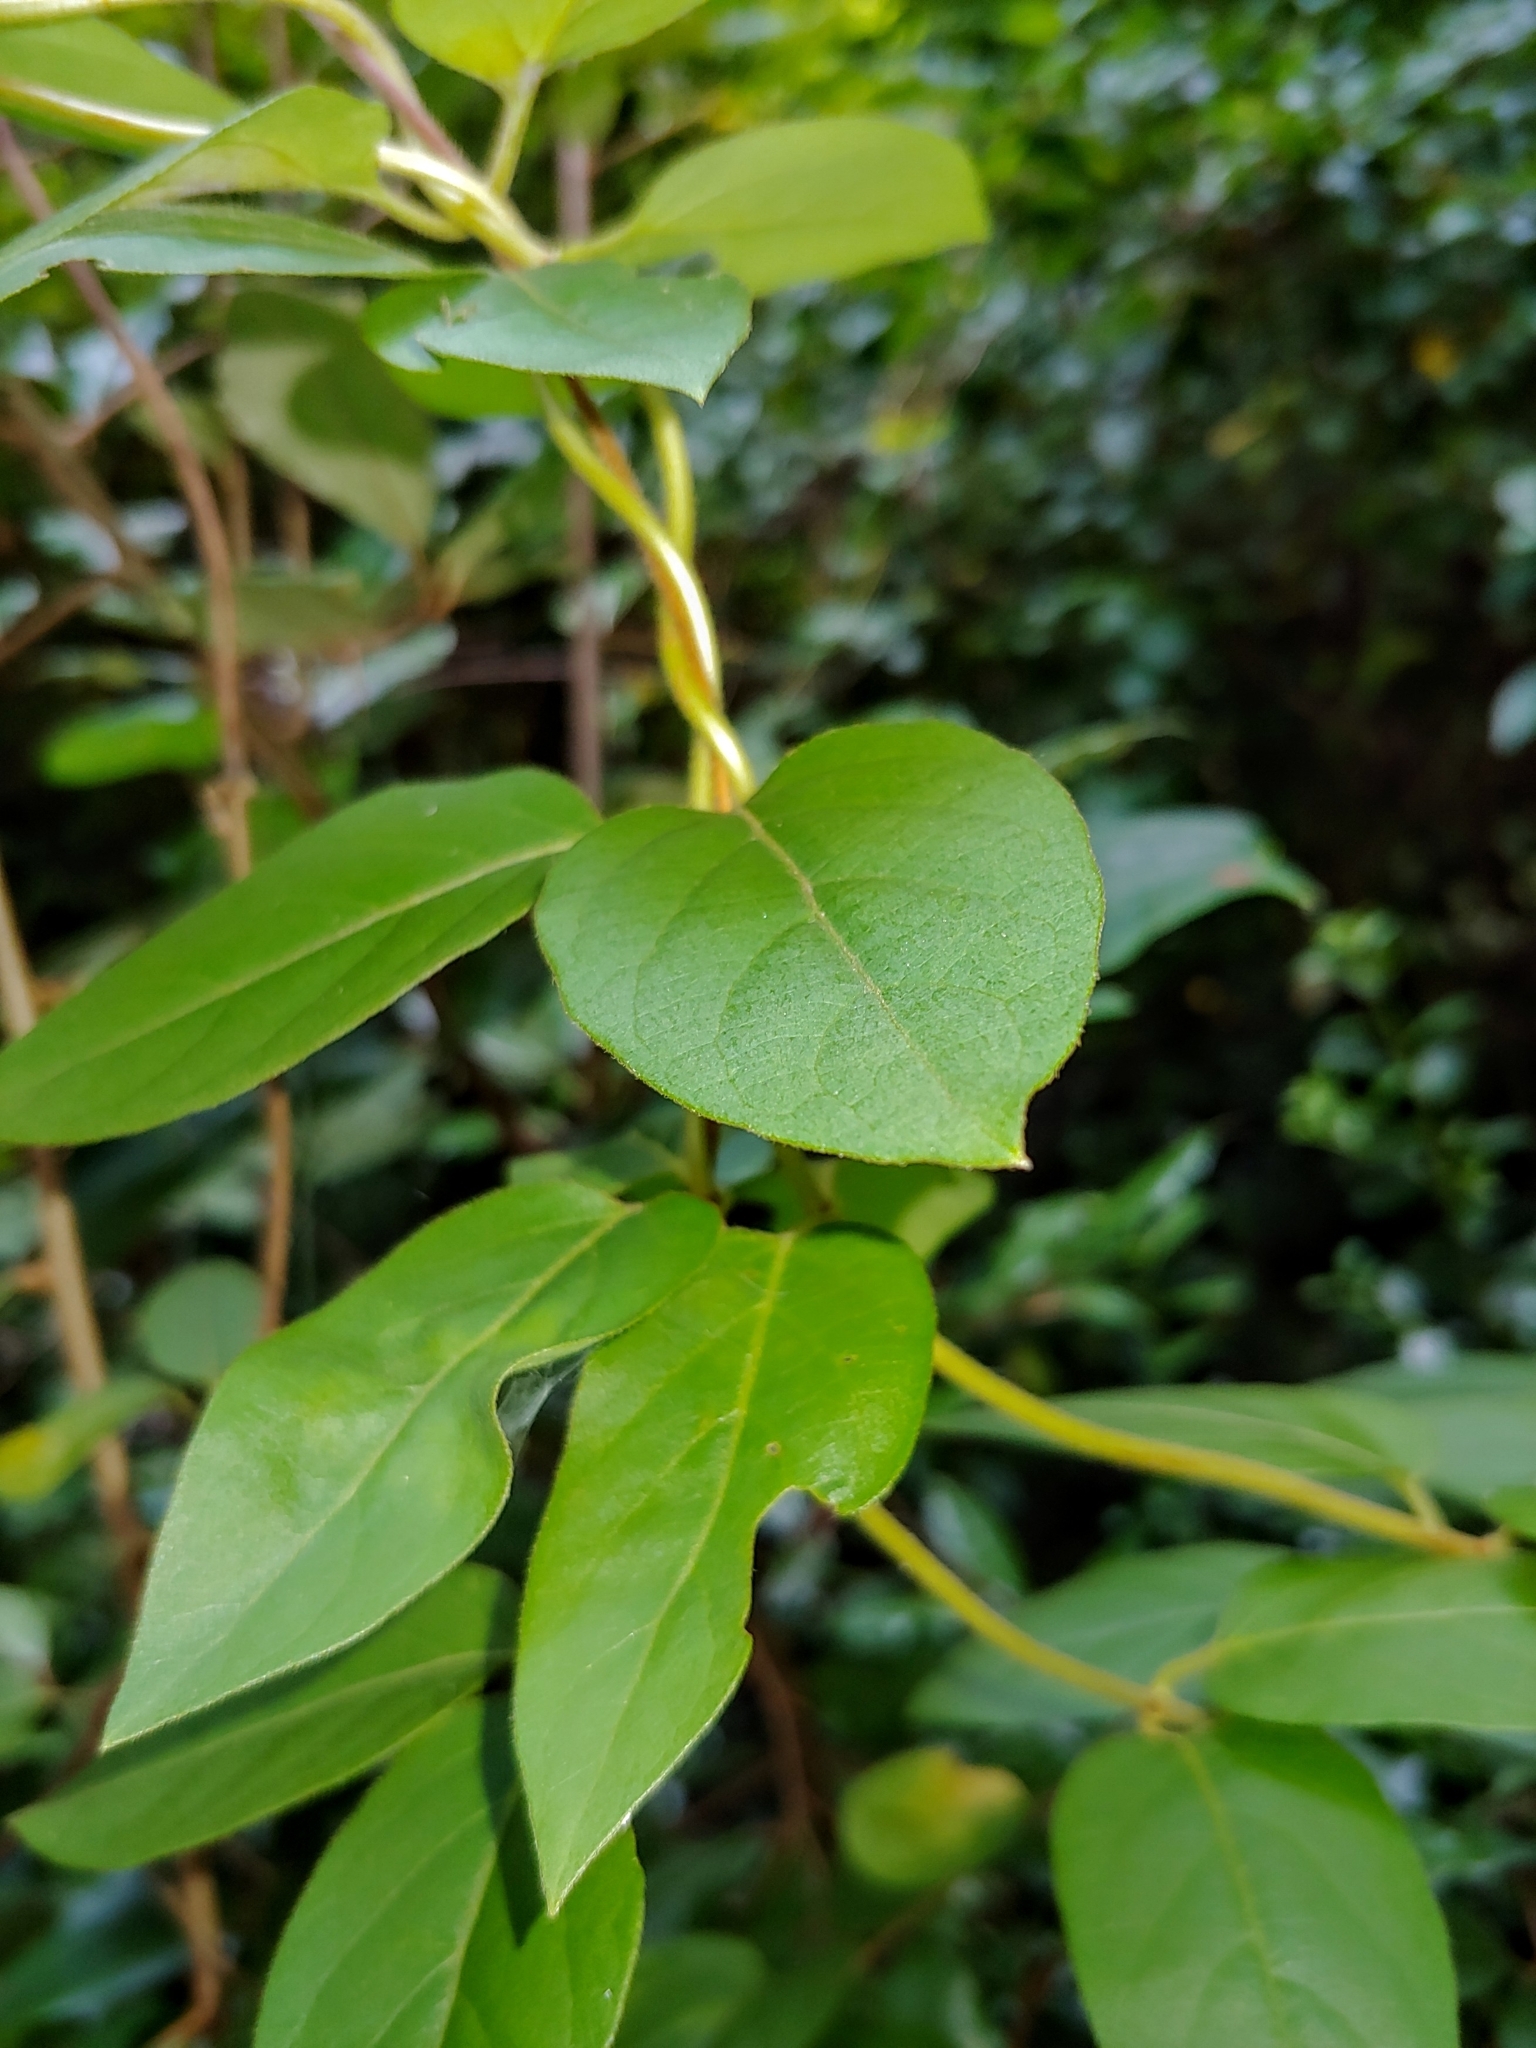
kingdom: Plantae
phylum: Tracheophyta
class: Magnoliopsida
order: Dipsacales
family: Caprifoliaceae
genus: Lonicera
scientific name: Lonicera japonica
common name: Japanese honeysuckle
